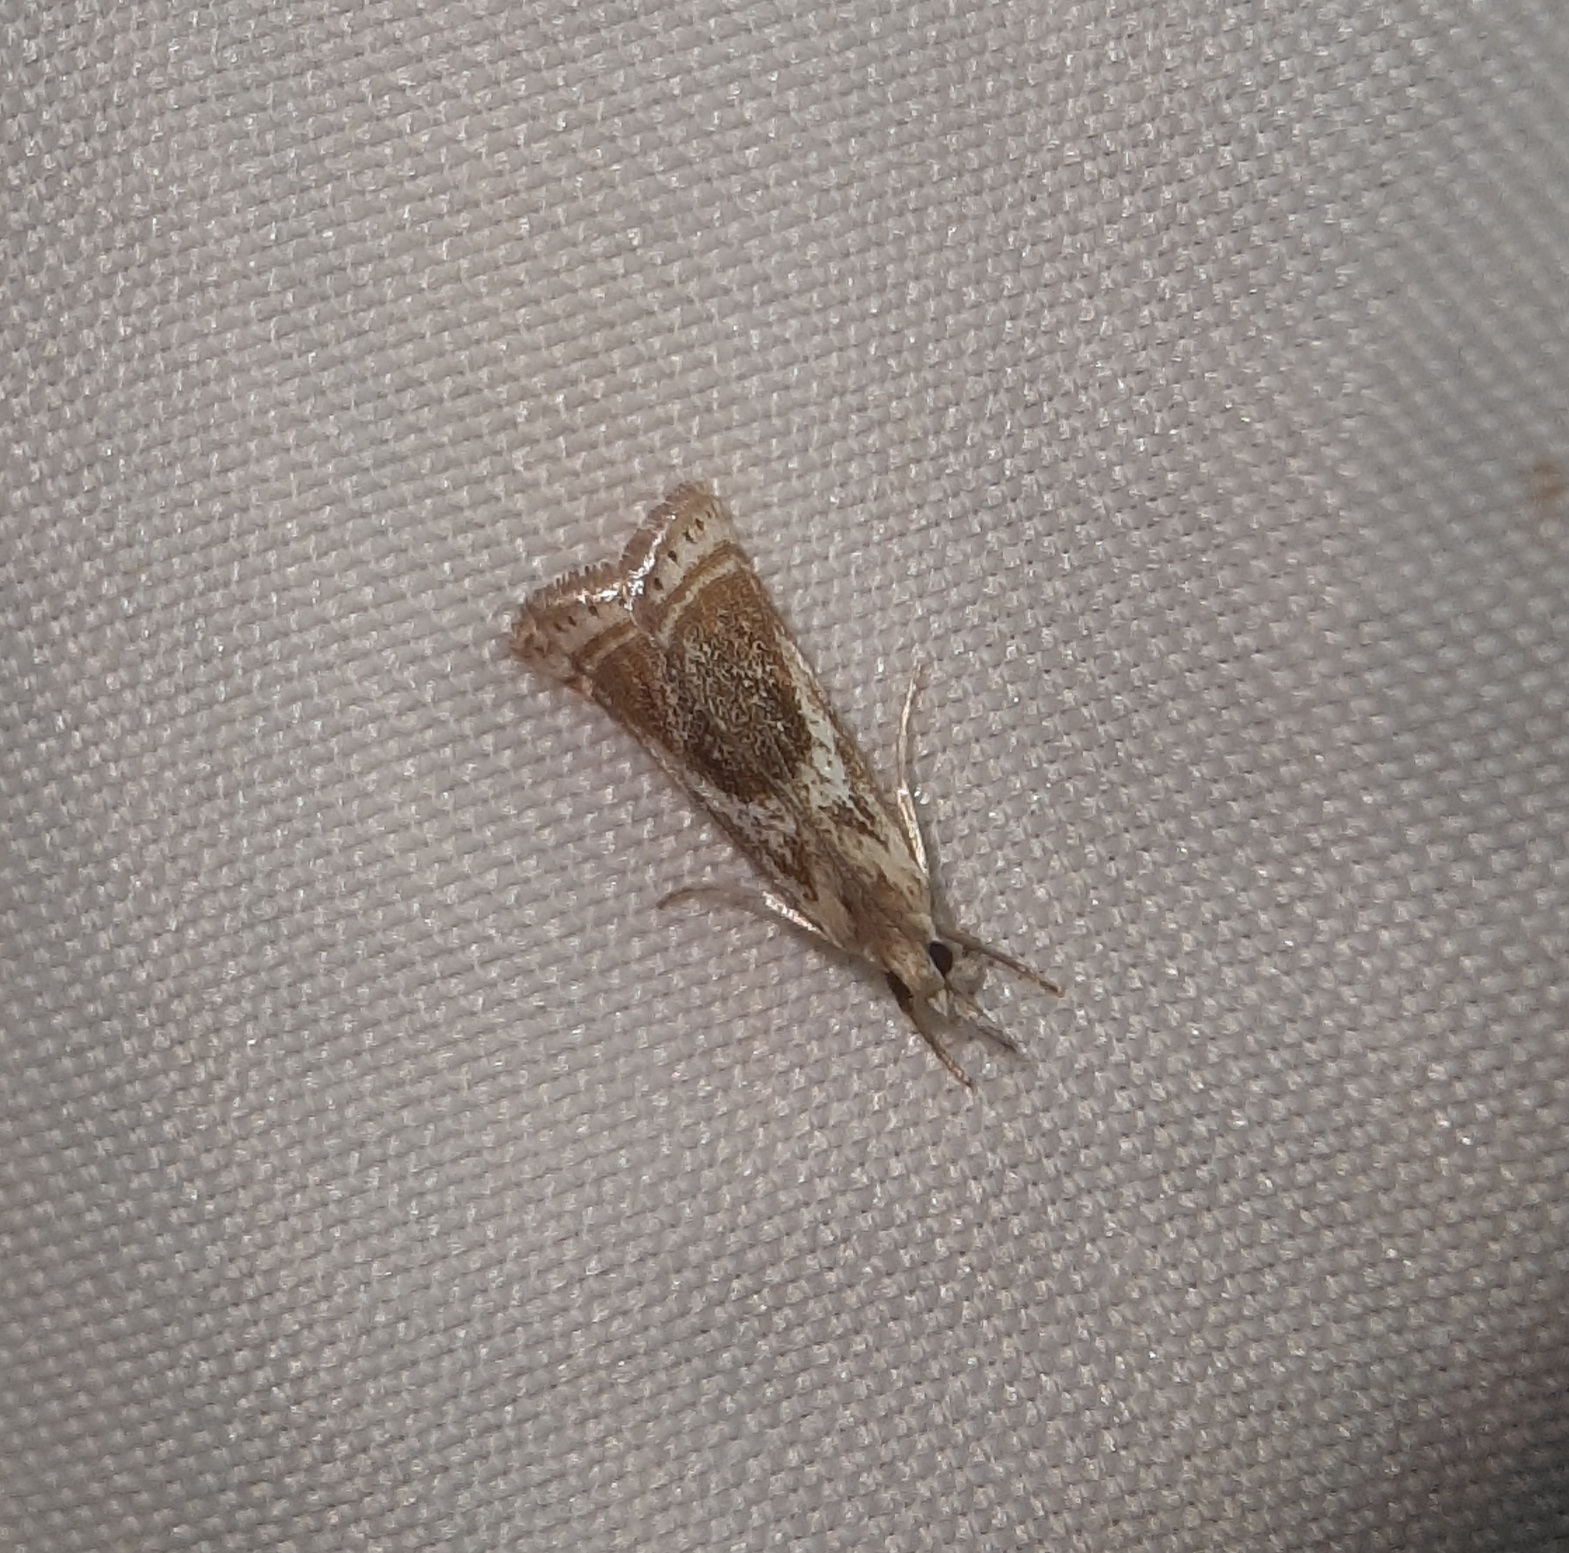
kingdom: Animalia
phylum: Arthropoda
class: Insecta
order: Lepidoptera
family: Crambidae
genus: Microcrambus
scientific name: Microcrambus elegans
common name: Elegant grass-veneer
